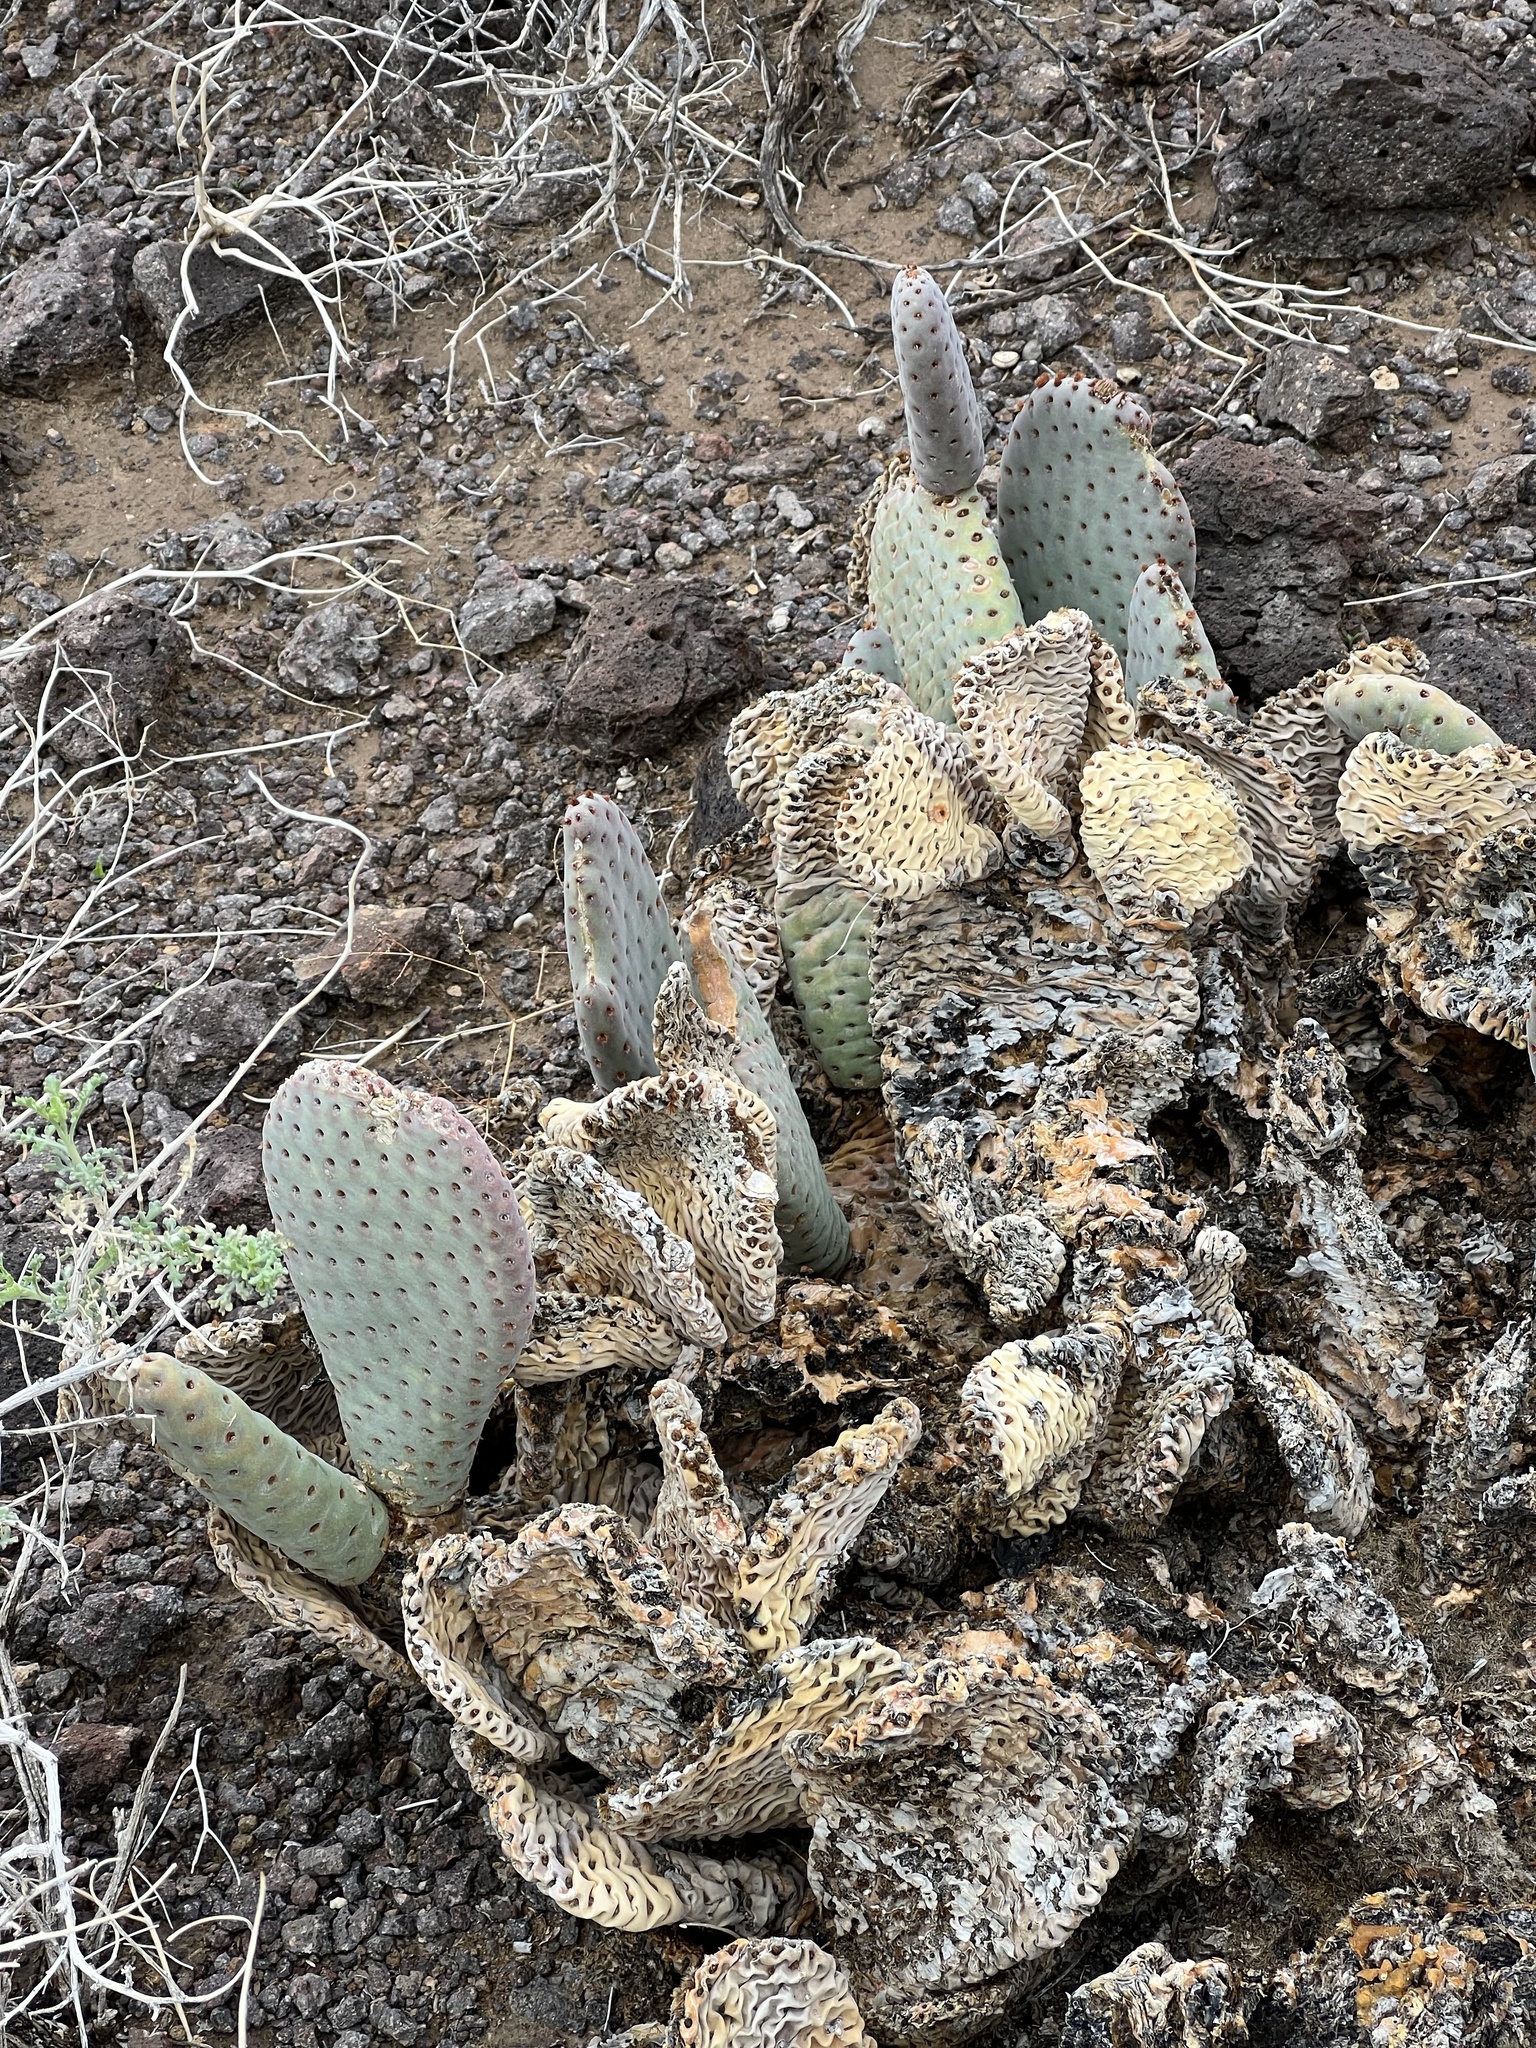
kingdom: Plantae
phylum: Tracheophyta
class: Magnoliopsida
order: Caryophyllales
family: Cactaceae
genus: Opuntia
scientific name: Opuntia basilaris
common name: Beavertail prickly-pear
